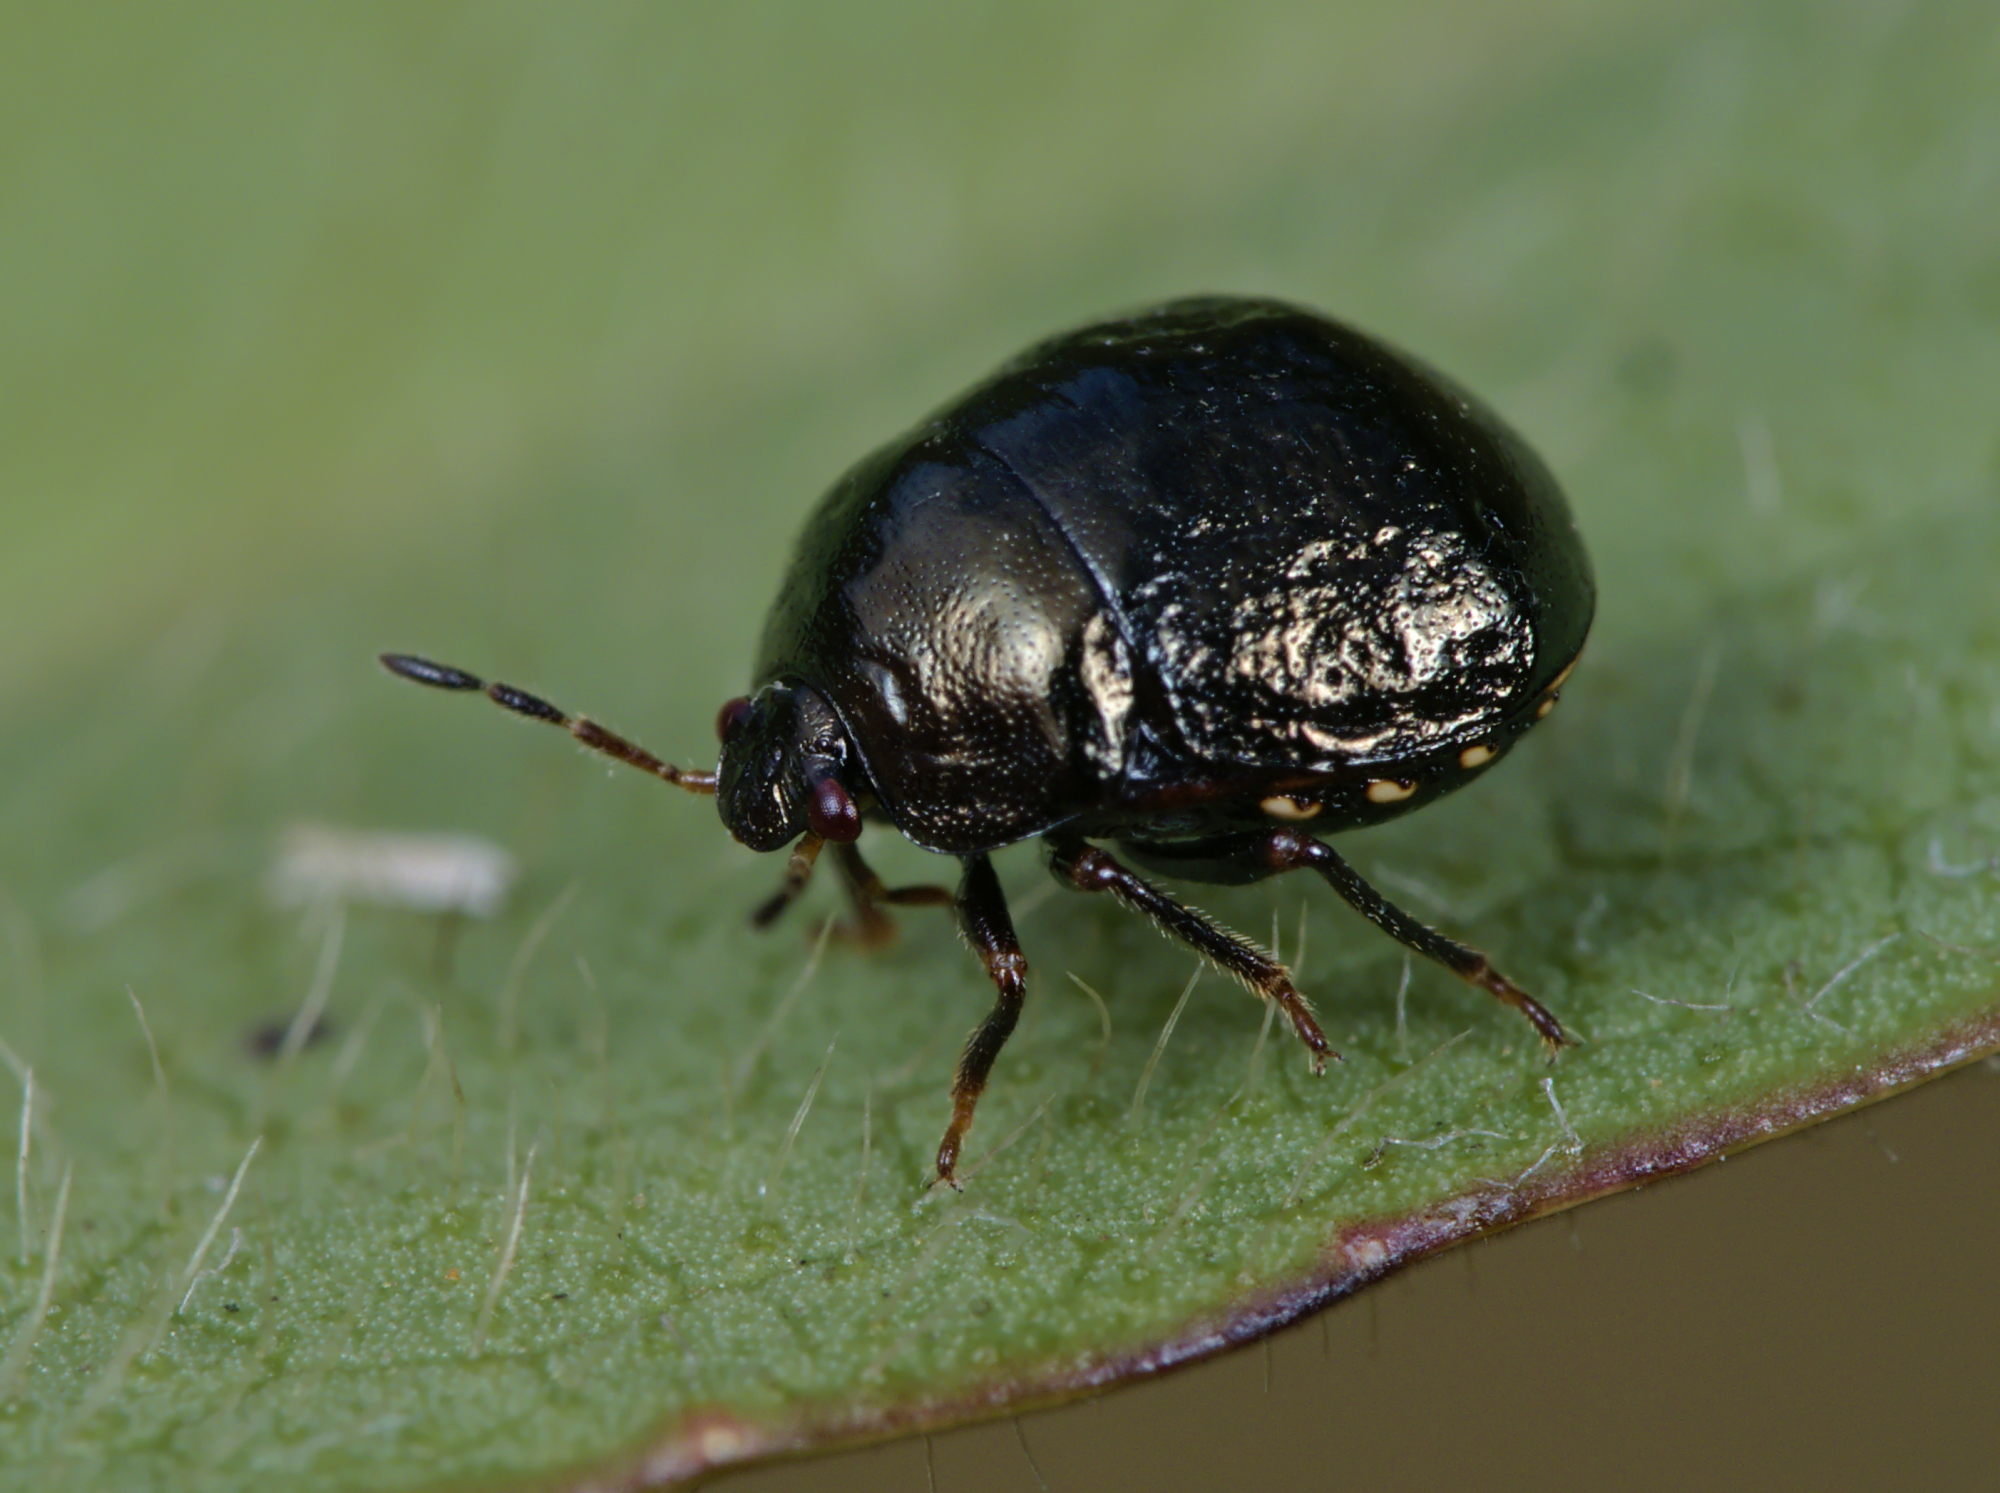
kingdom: Animalia
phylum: Arthropoda
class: Insecta
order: Hemiptera
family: Plataspidae
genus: Coptosoma
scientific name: Coptosoma scutellatum
